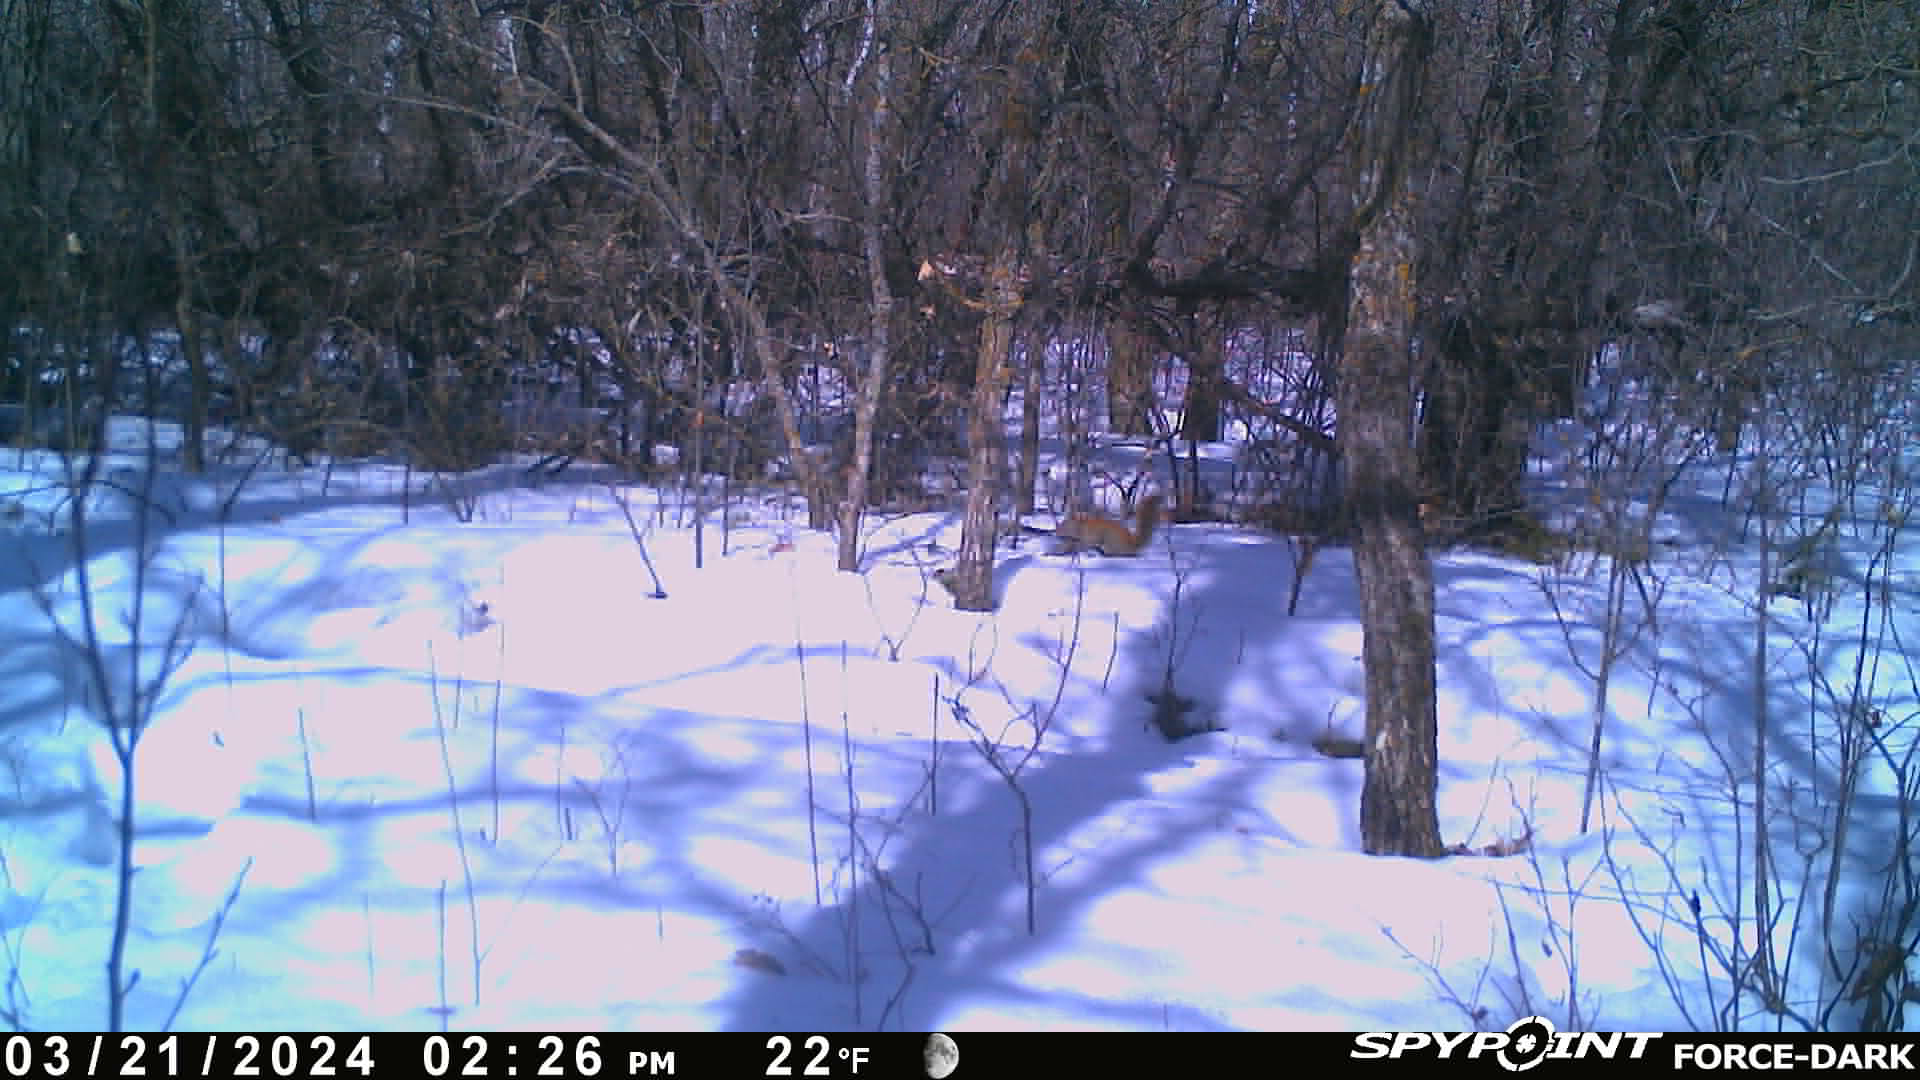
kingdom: Animalia
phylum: Chordata
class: Mammalia
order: Rodentia
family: Sciuridae
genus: Tamiasciurus
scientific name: Tamiasciurus hudsonicus
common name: Red squirrel
